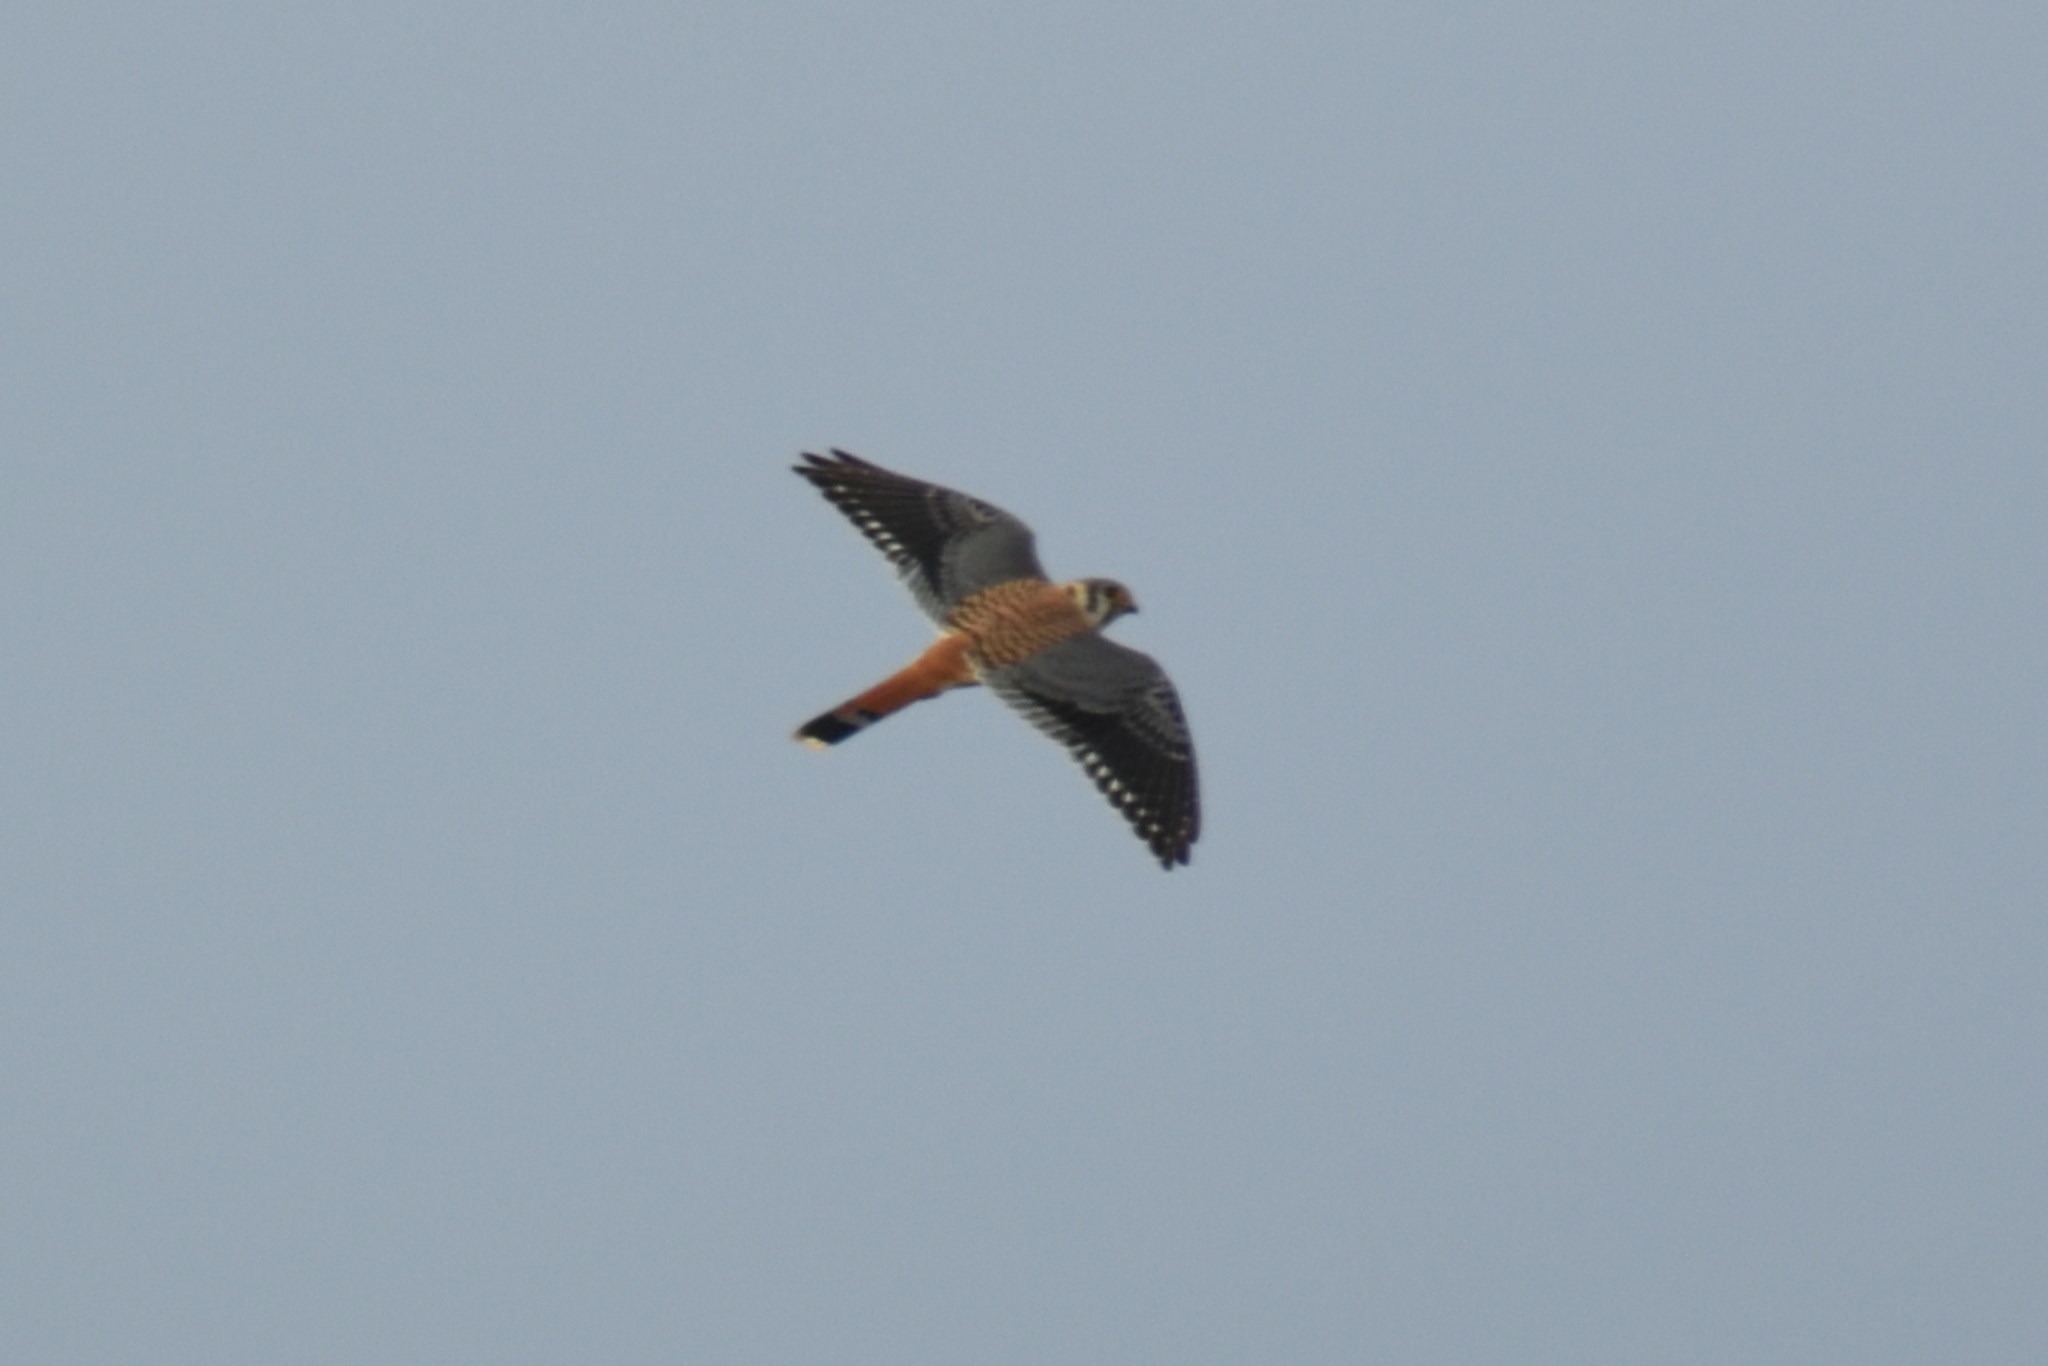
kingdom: Animalia
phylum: Chordata
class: Aves
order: Falconiformes
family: Falconidae
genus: Falco
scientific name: Falco sparverius
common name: American kestrel
